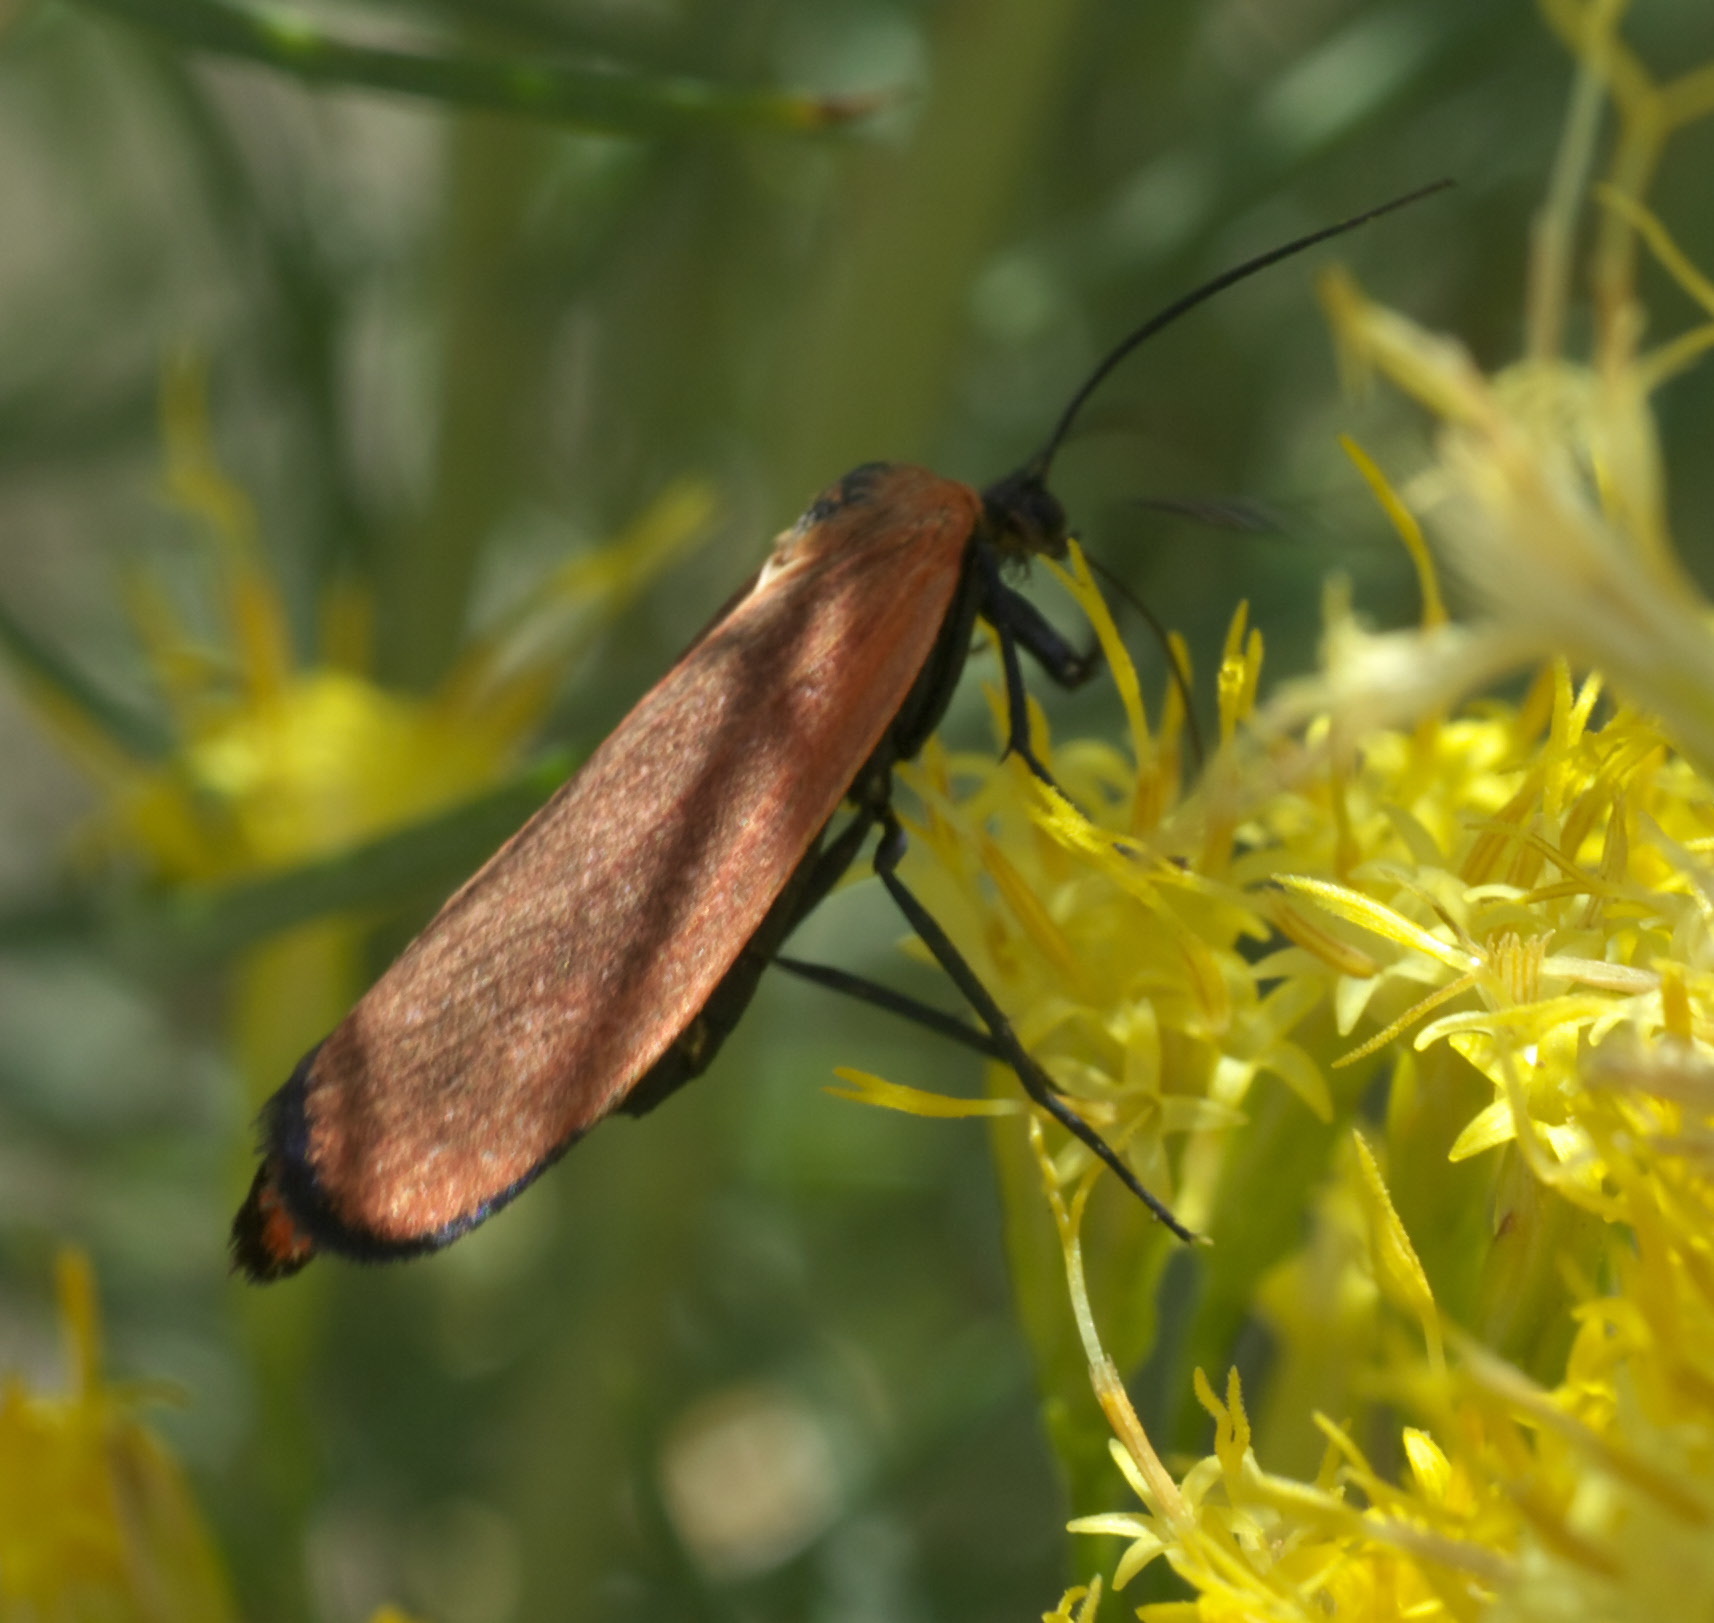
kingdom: Animalia
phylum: Arthropoda
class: Insecta
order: Lepidoptera
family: Erebidae
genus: Lycomorpha
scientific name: Lycomorpha grotei
